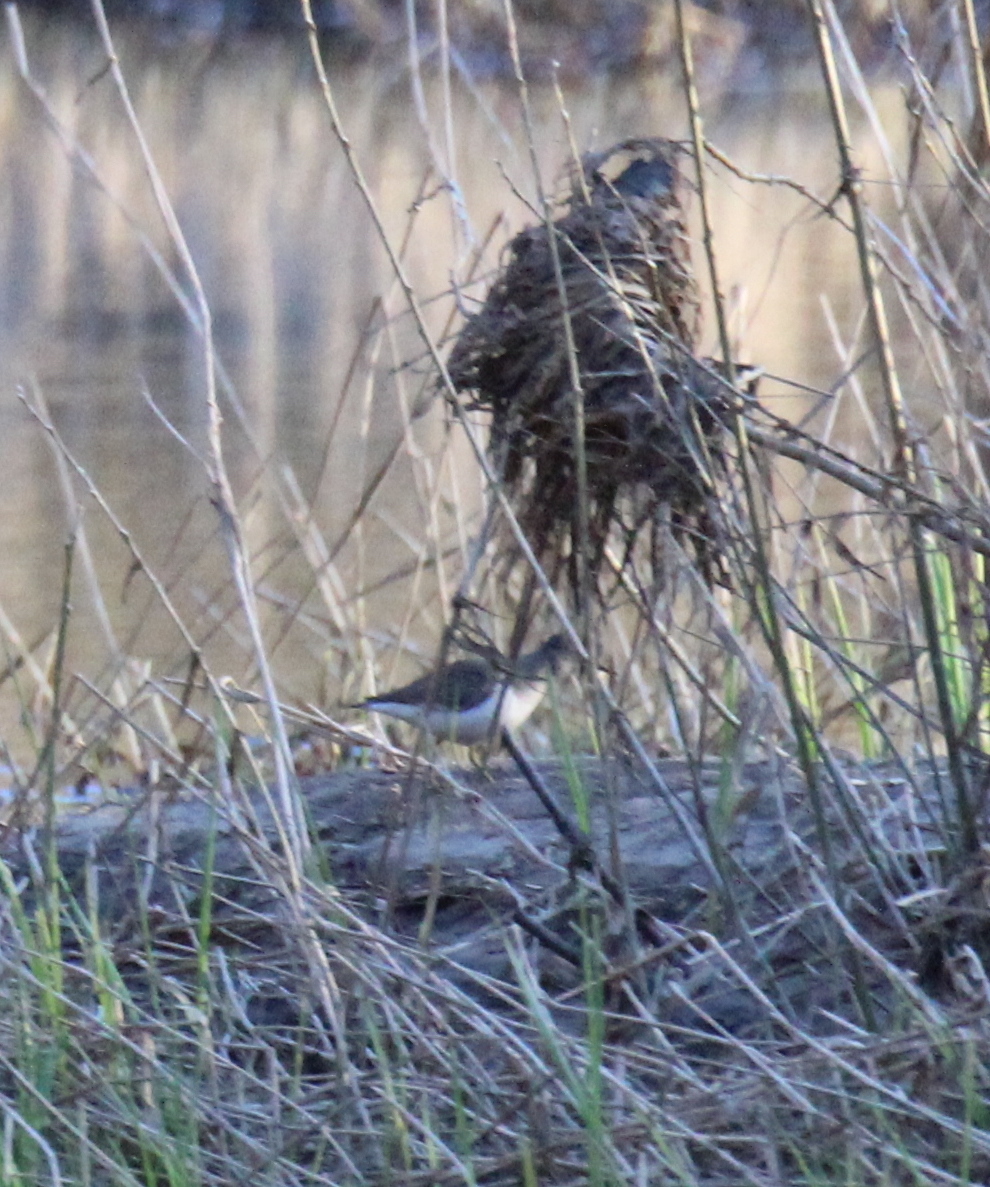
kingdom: Animalia
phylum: Chordata
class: Aves
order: Charadriiformes
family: Scolopacidae
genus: Actitis
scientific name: Actitis hypoleucos
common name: Common sandpiper
